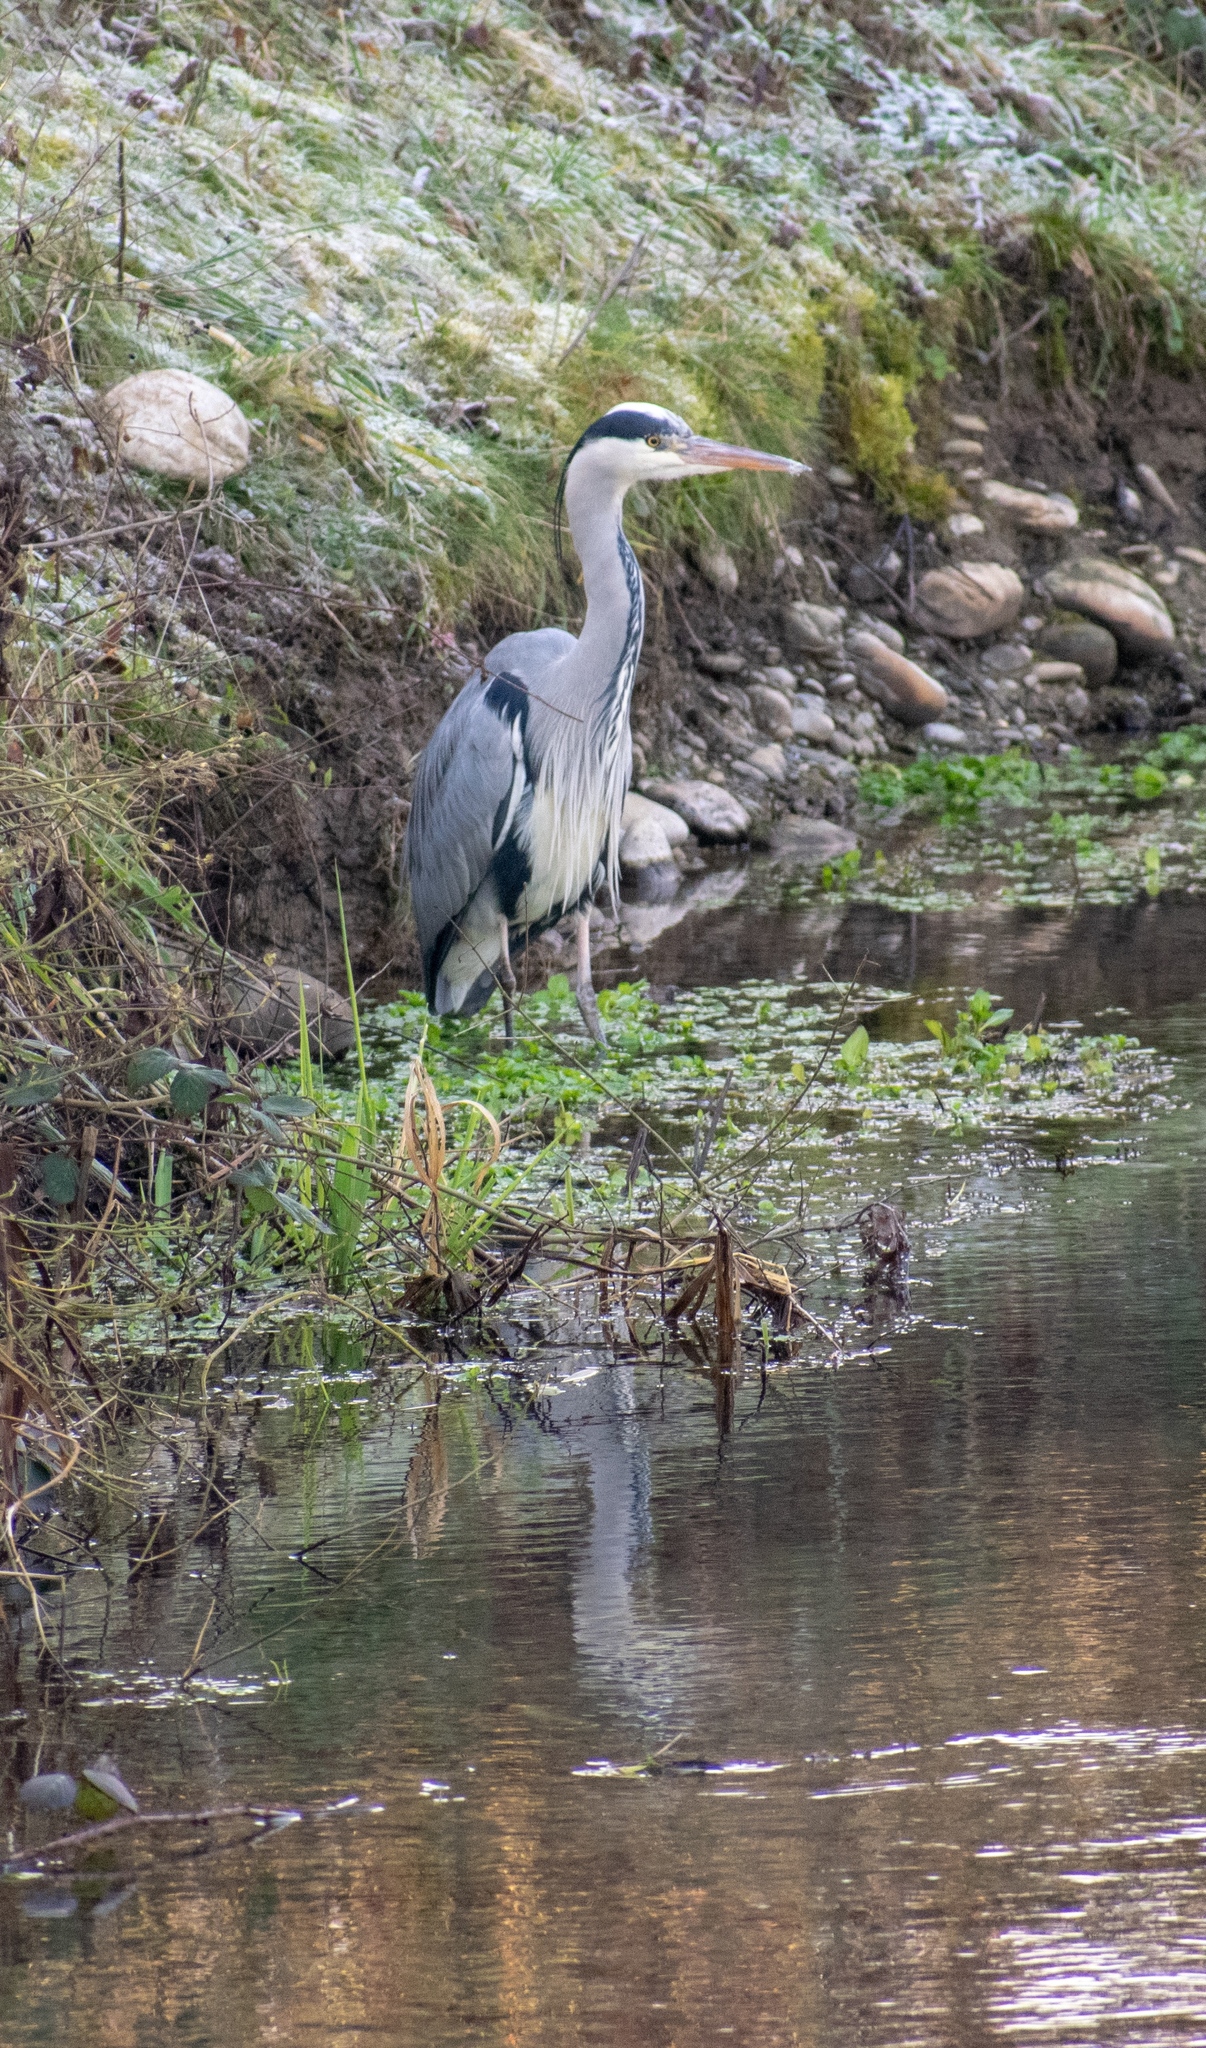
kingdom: Animalia
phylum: Chordata
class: Aves
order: Pelecaniformes
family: Ardeidae
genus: Ardea
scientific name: Ardea cinerea
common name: Grey heron
